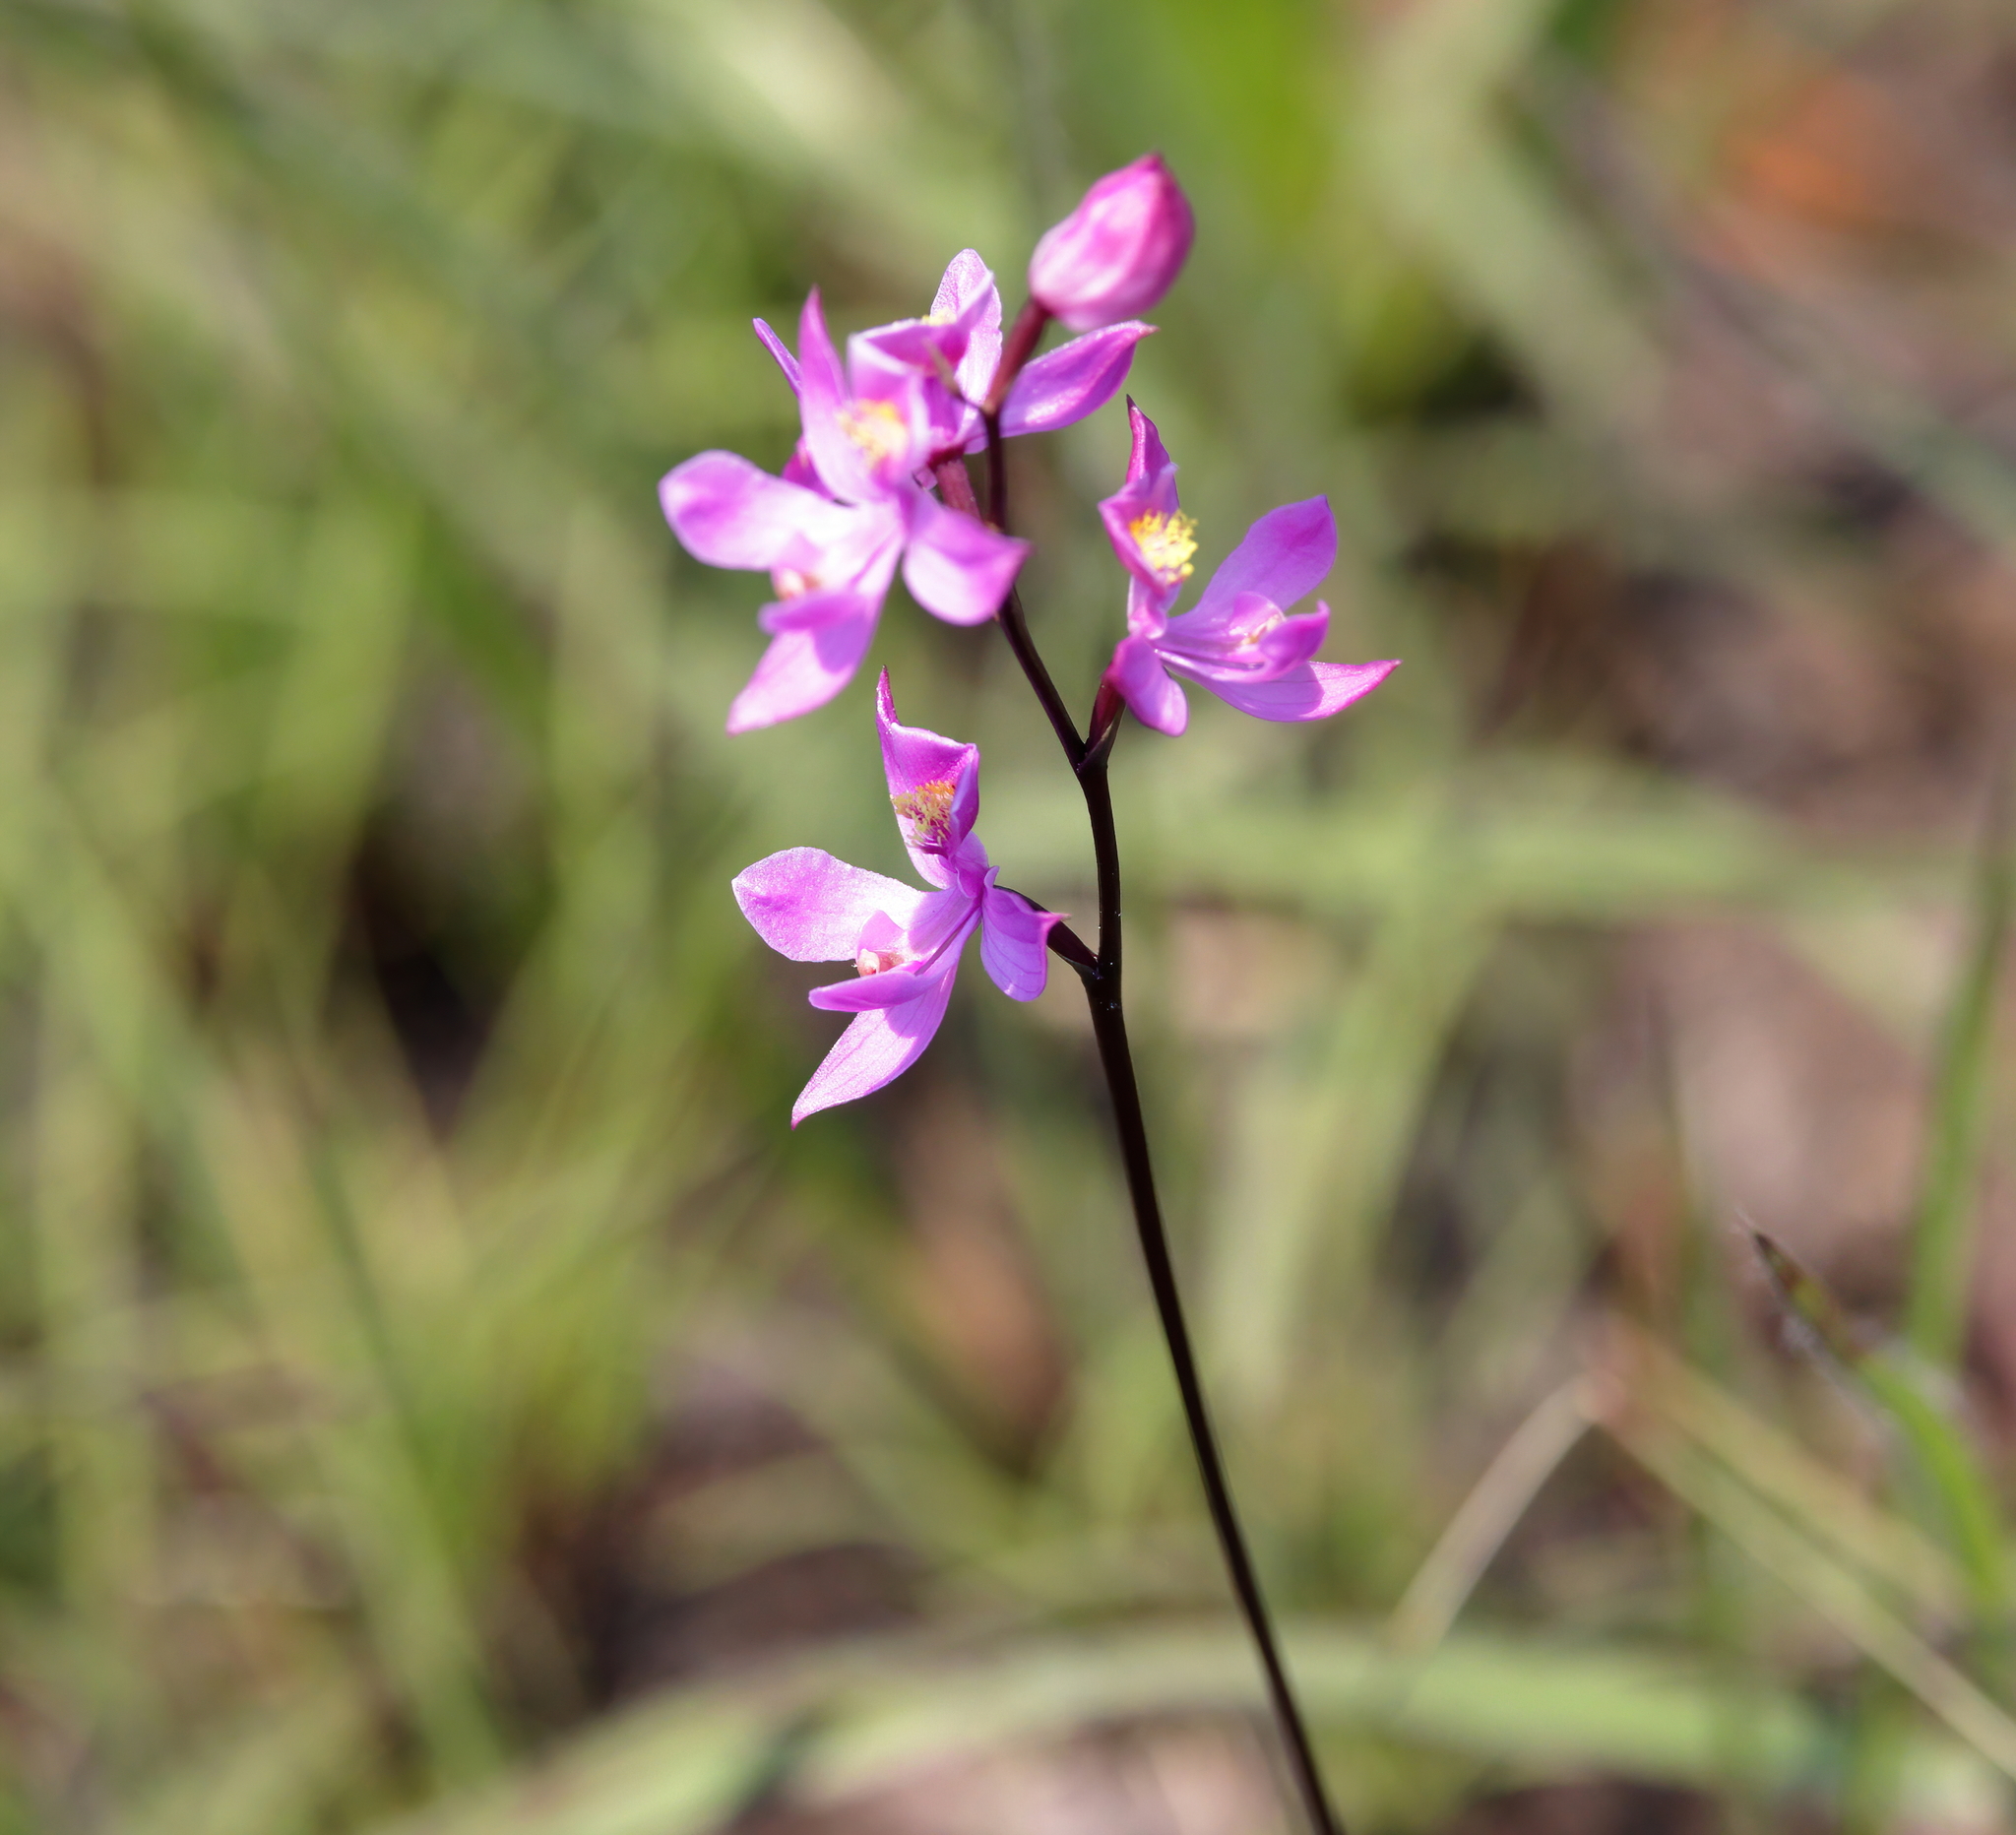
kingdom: Plantae
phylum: Tracheophyta
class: Liliopsida
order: Asparagales
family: Orchidaceae
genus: Calopogon
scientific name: Calopogon multiflorus
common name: Many-flowered grass-pink orchid
